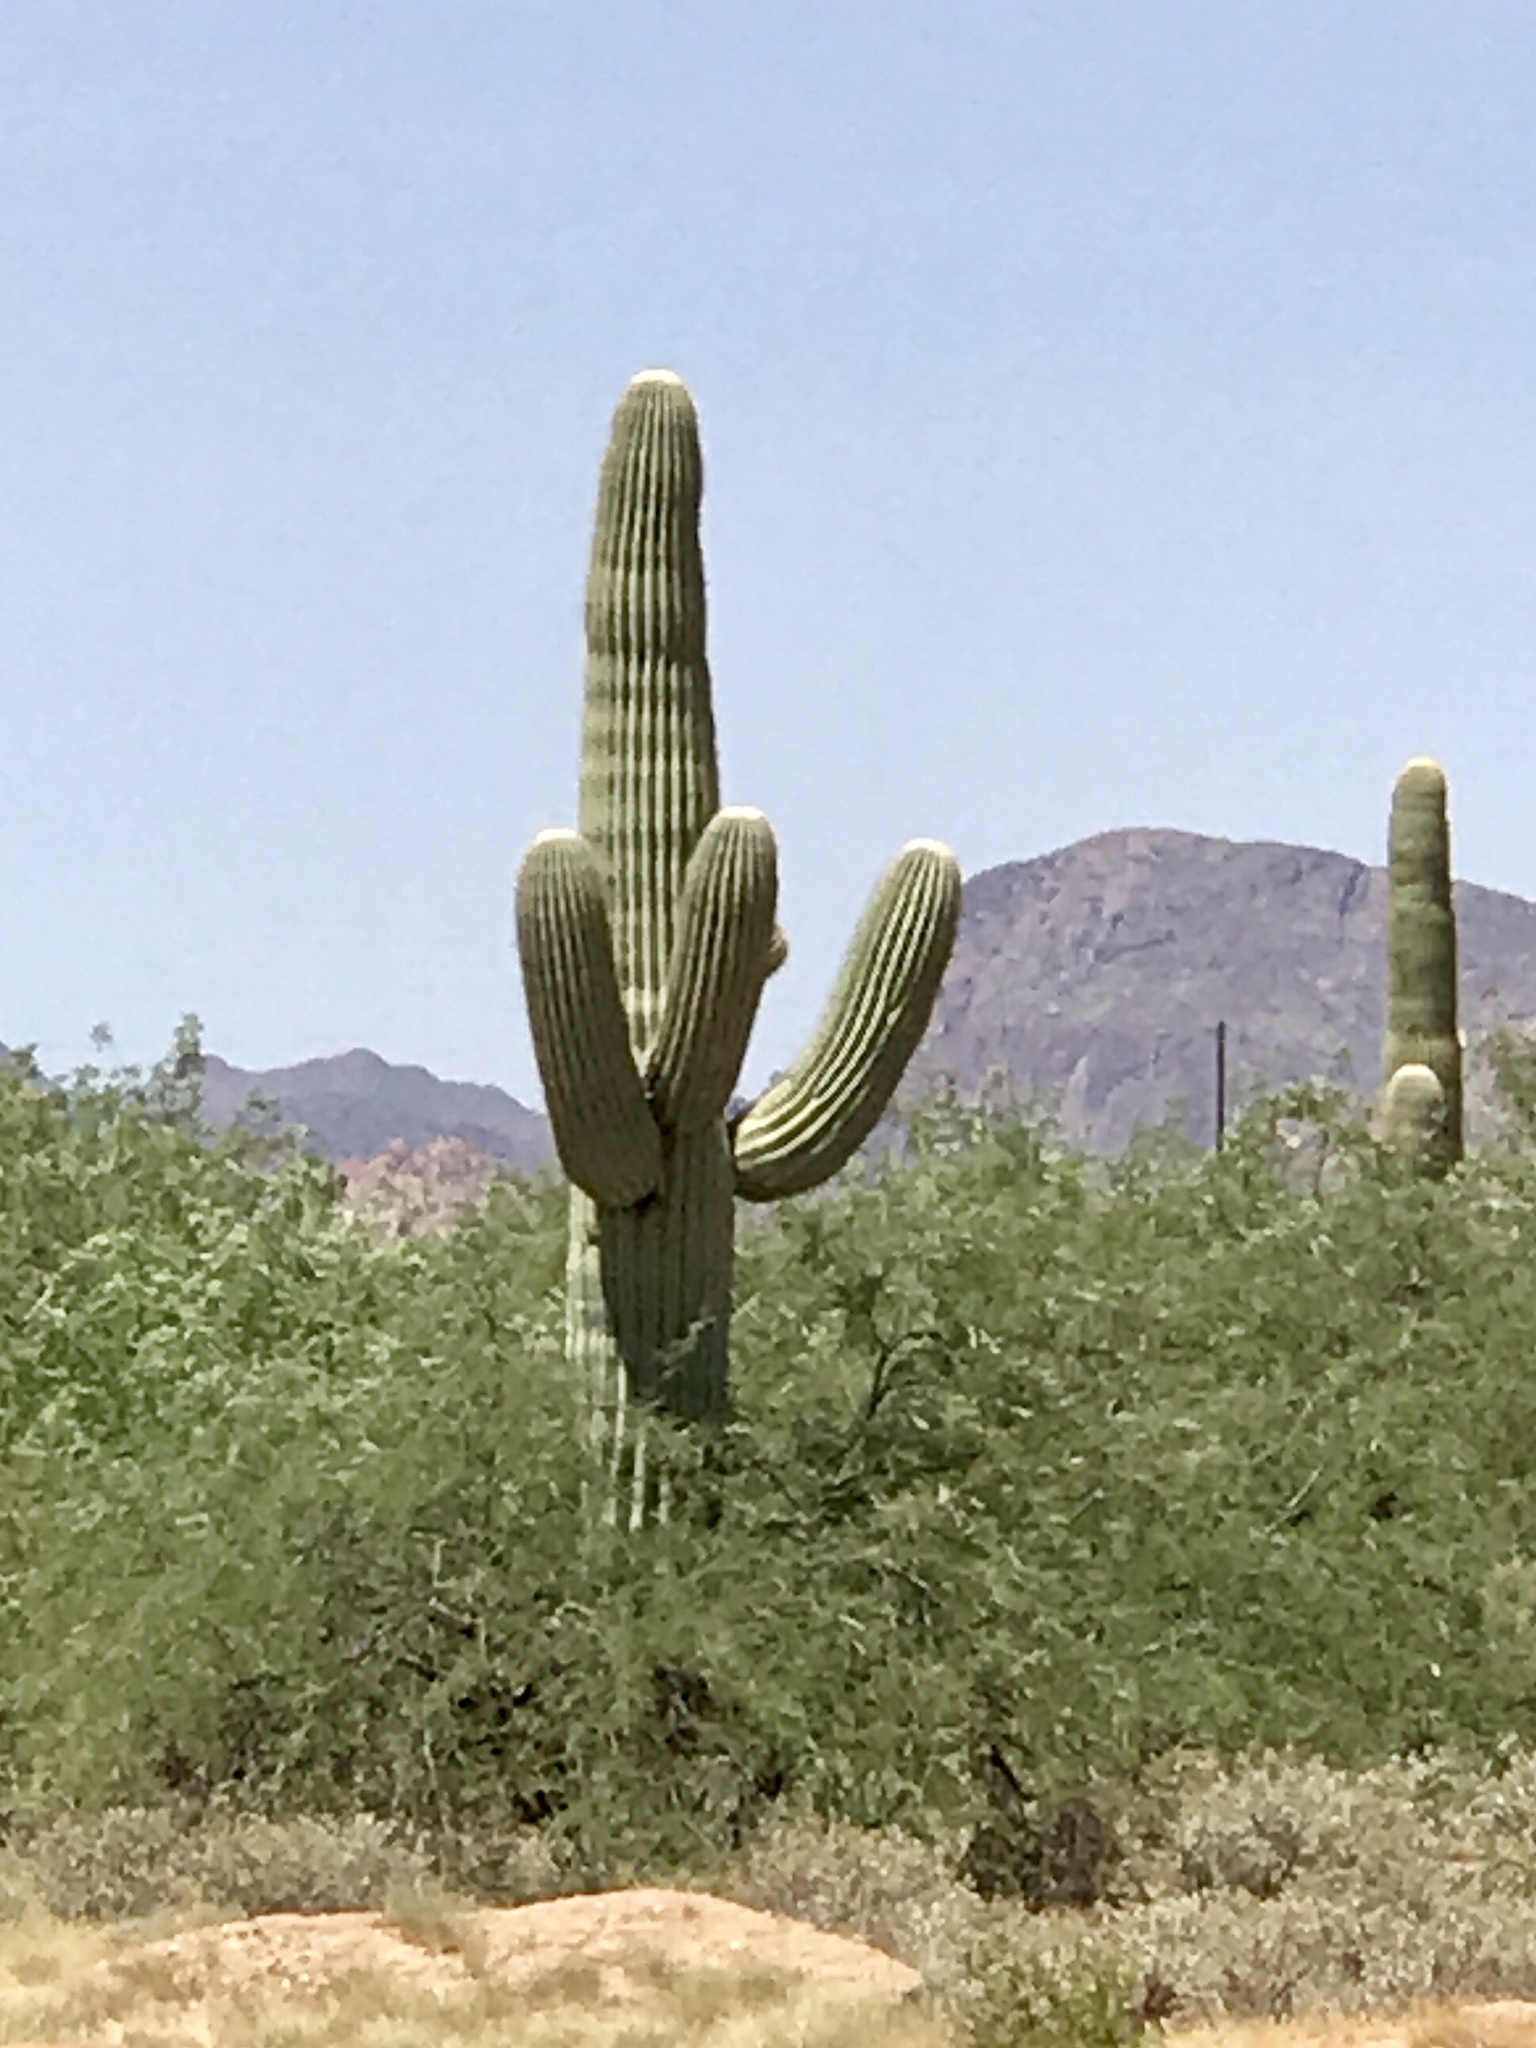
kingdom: Plantae
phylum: Tracheophyta
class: Magnoliopsida
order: Caryophyllales
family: Cactaceae
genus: Carnegiea
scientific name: Carnegiea gigantea
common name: Saguaro
